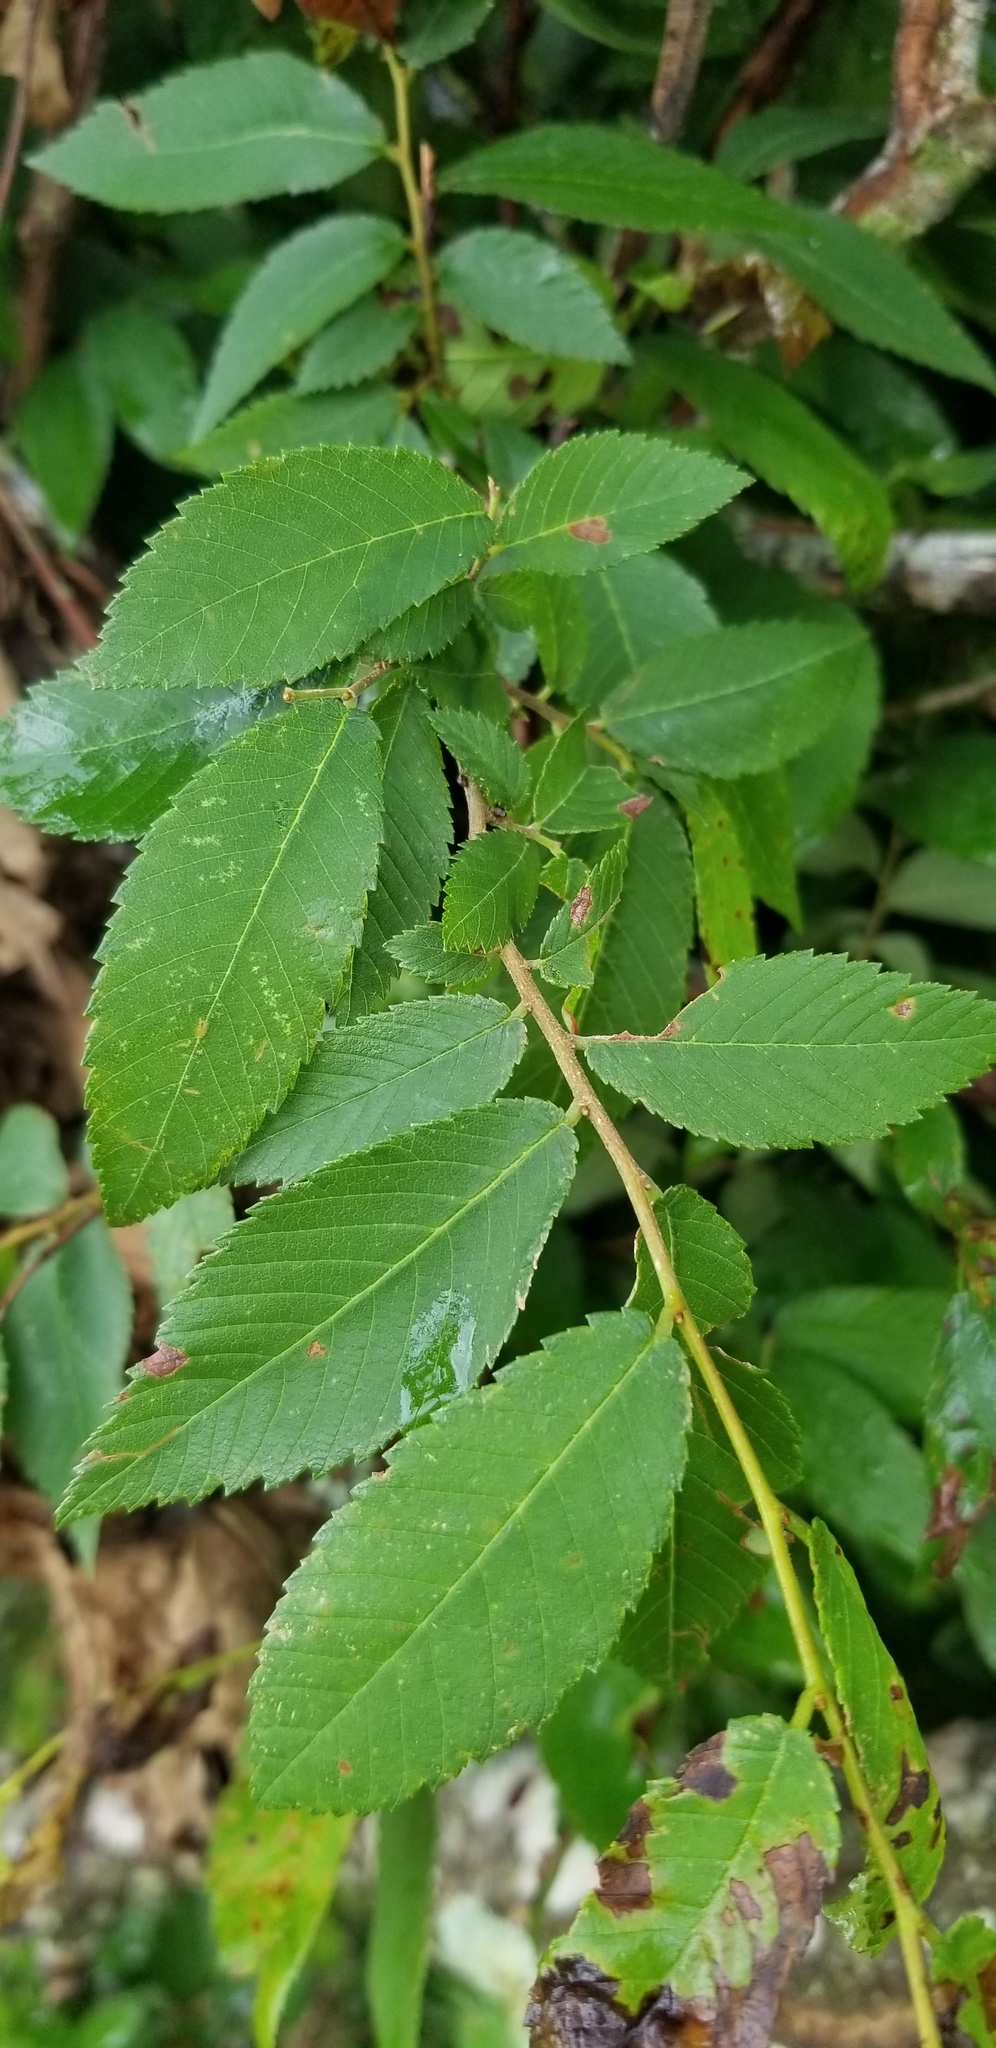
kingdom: Plantae
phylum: Tracheophyta
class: Magnoliopsida
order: Rosales
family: Ulmaceae
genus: Ulmus
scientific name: Ulmus alata
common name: Winged elm
